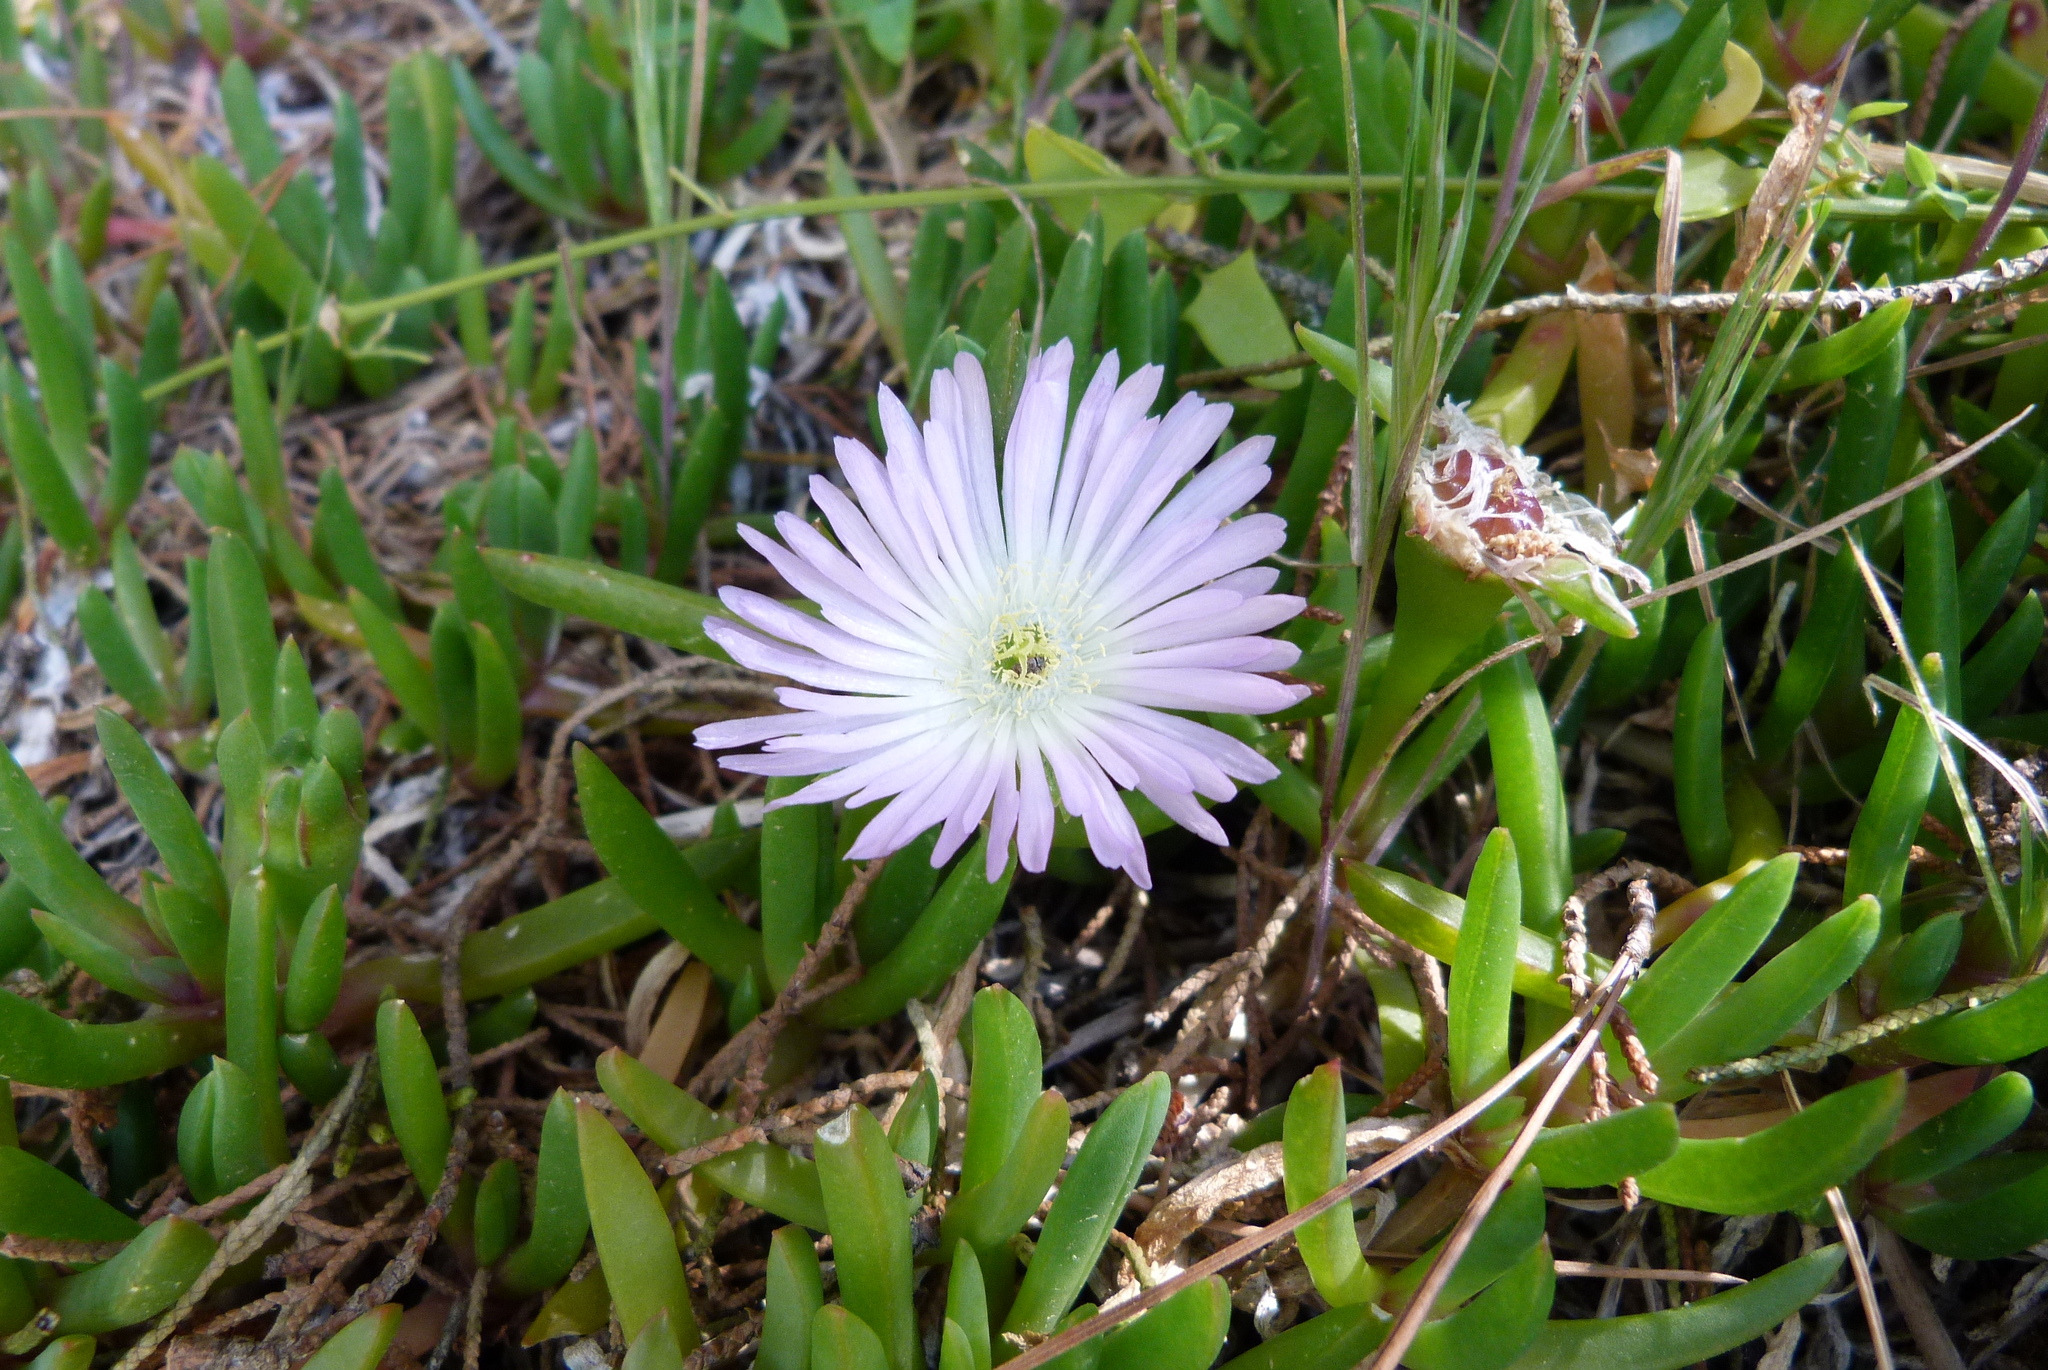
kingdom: Plantae
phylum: Tracheophyta
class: Magnoliopsida
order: Caryophyllales
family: Aizoaceae
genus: Disphyma
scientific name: Disphyma australe
